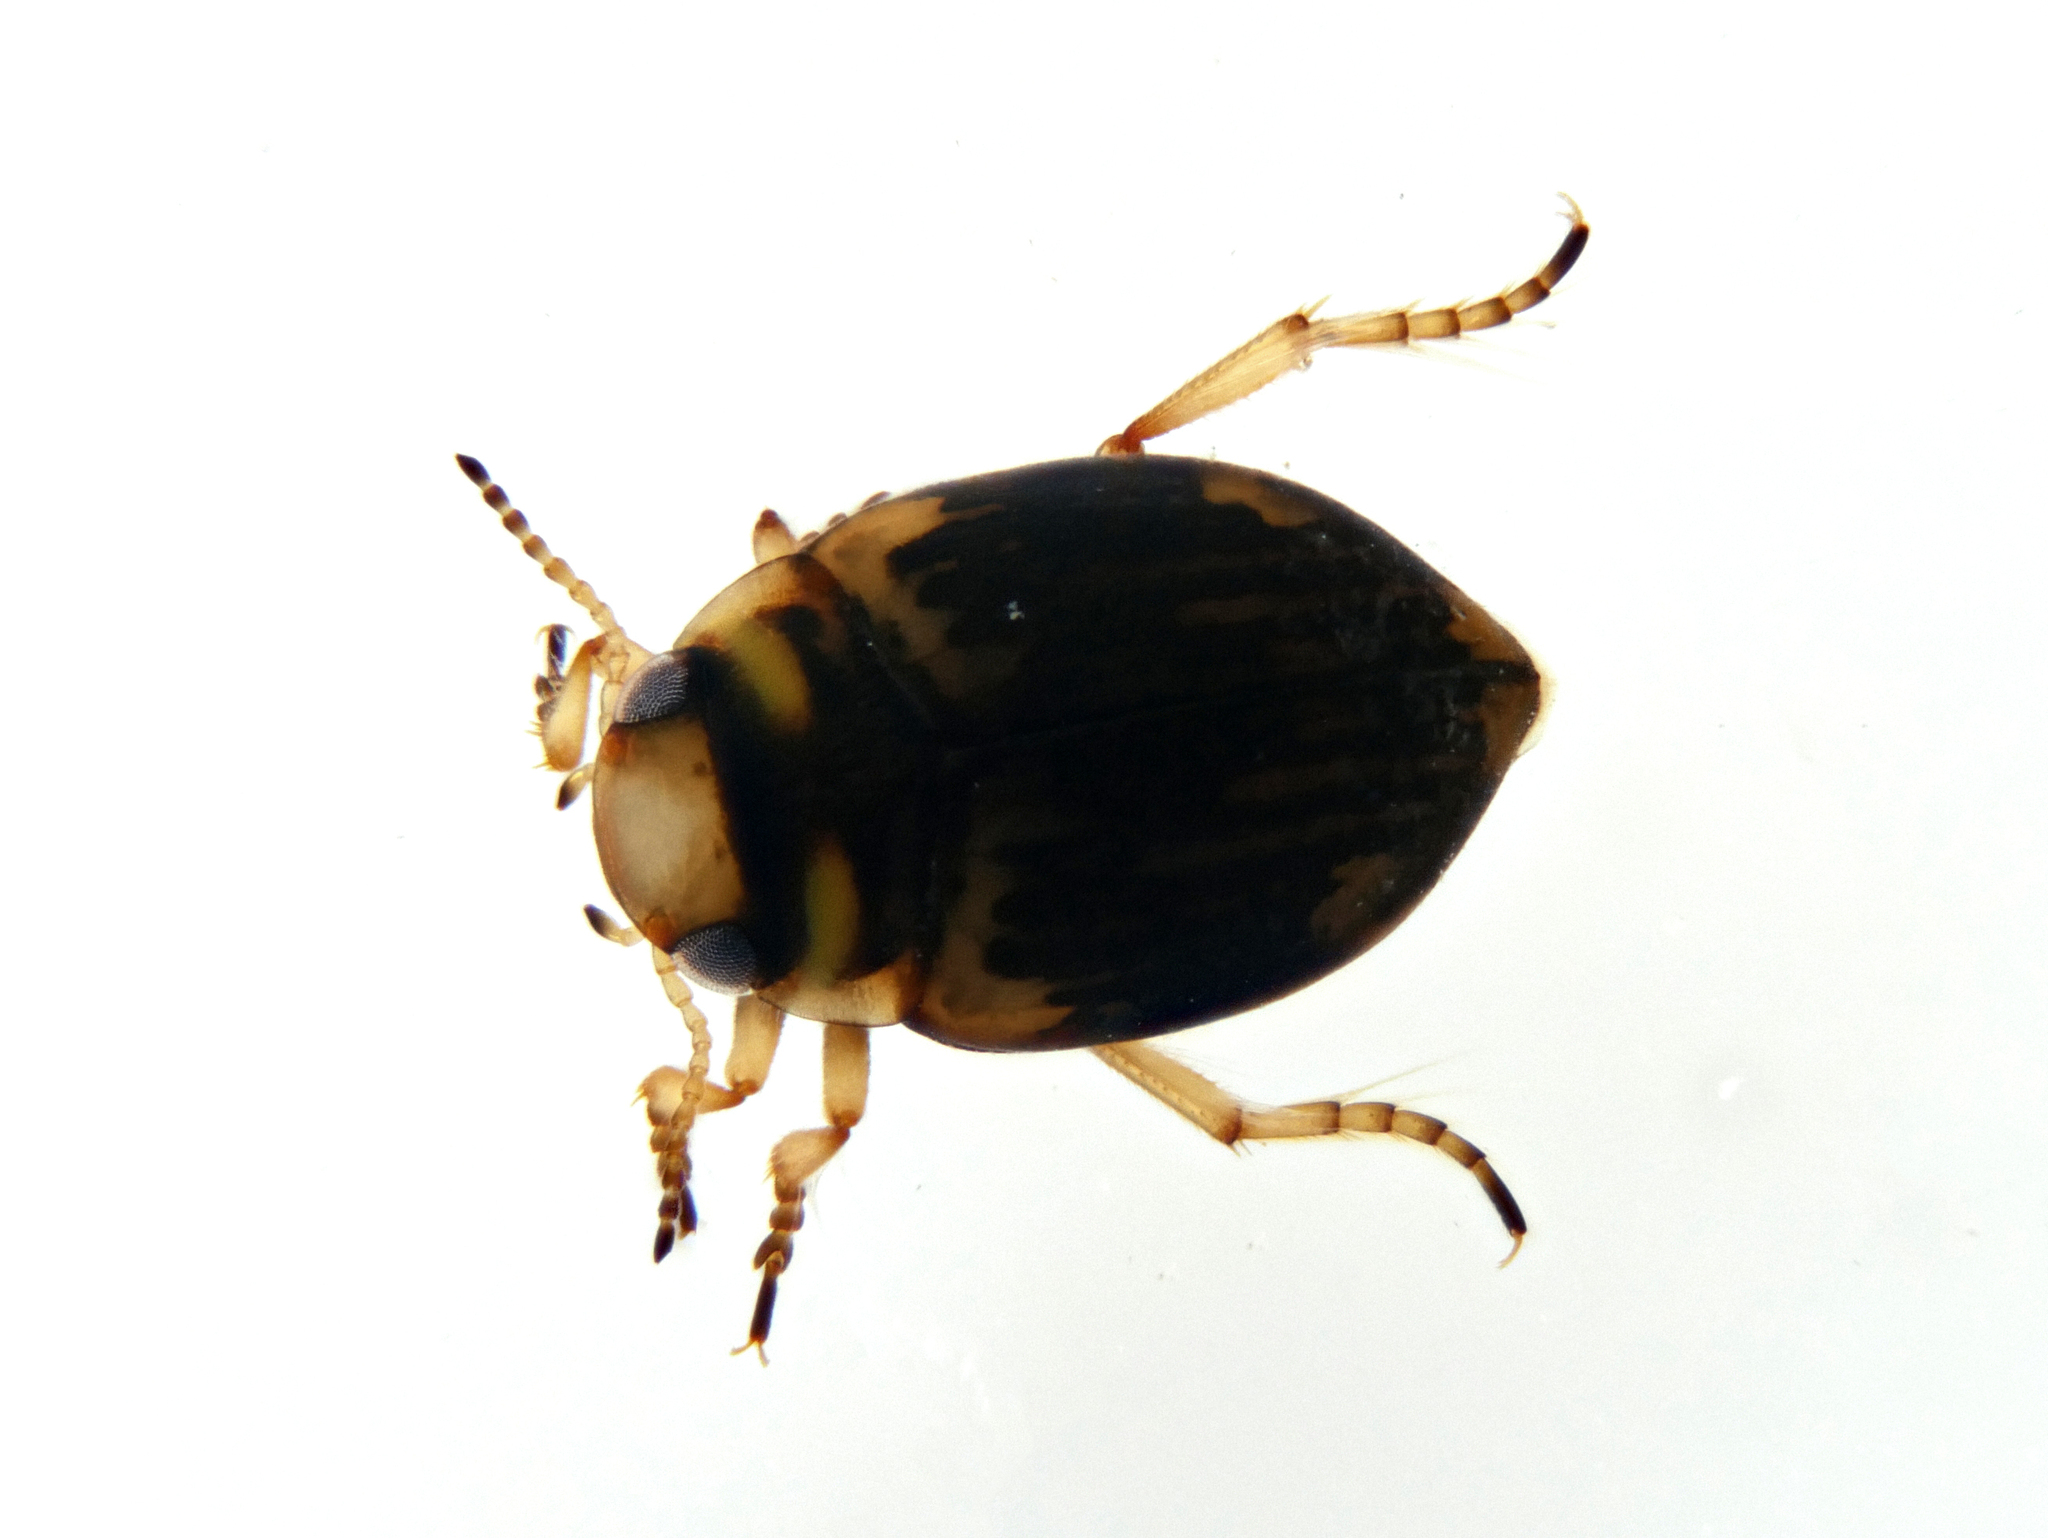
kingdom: Animalia
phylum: Arthropoda
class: Insecta
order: Coleoptera
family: Dytiscidae
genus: Nectoporus
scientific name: Nectoporus sanmarkii
